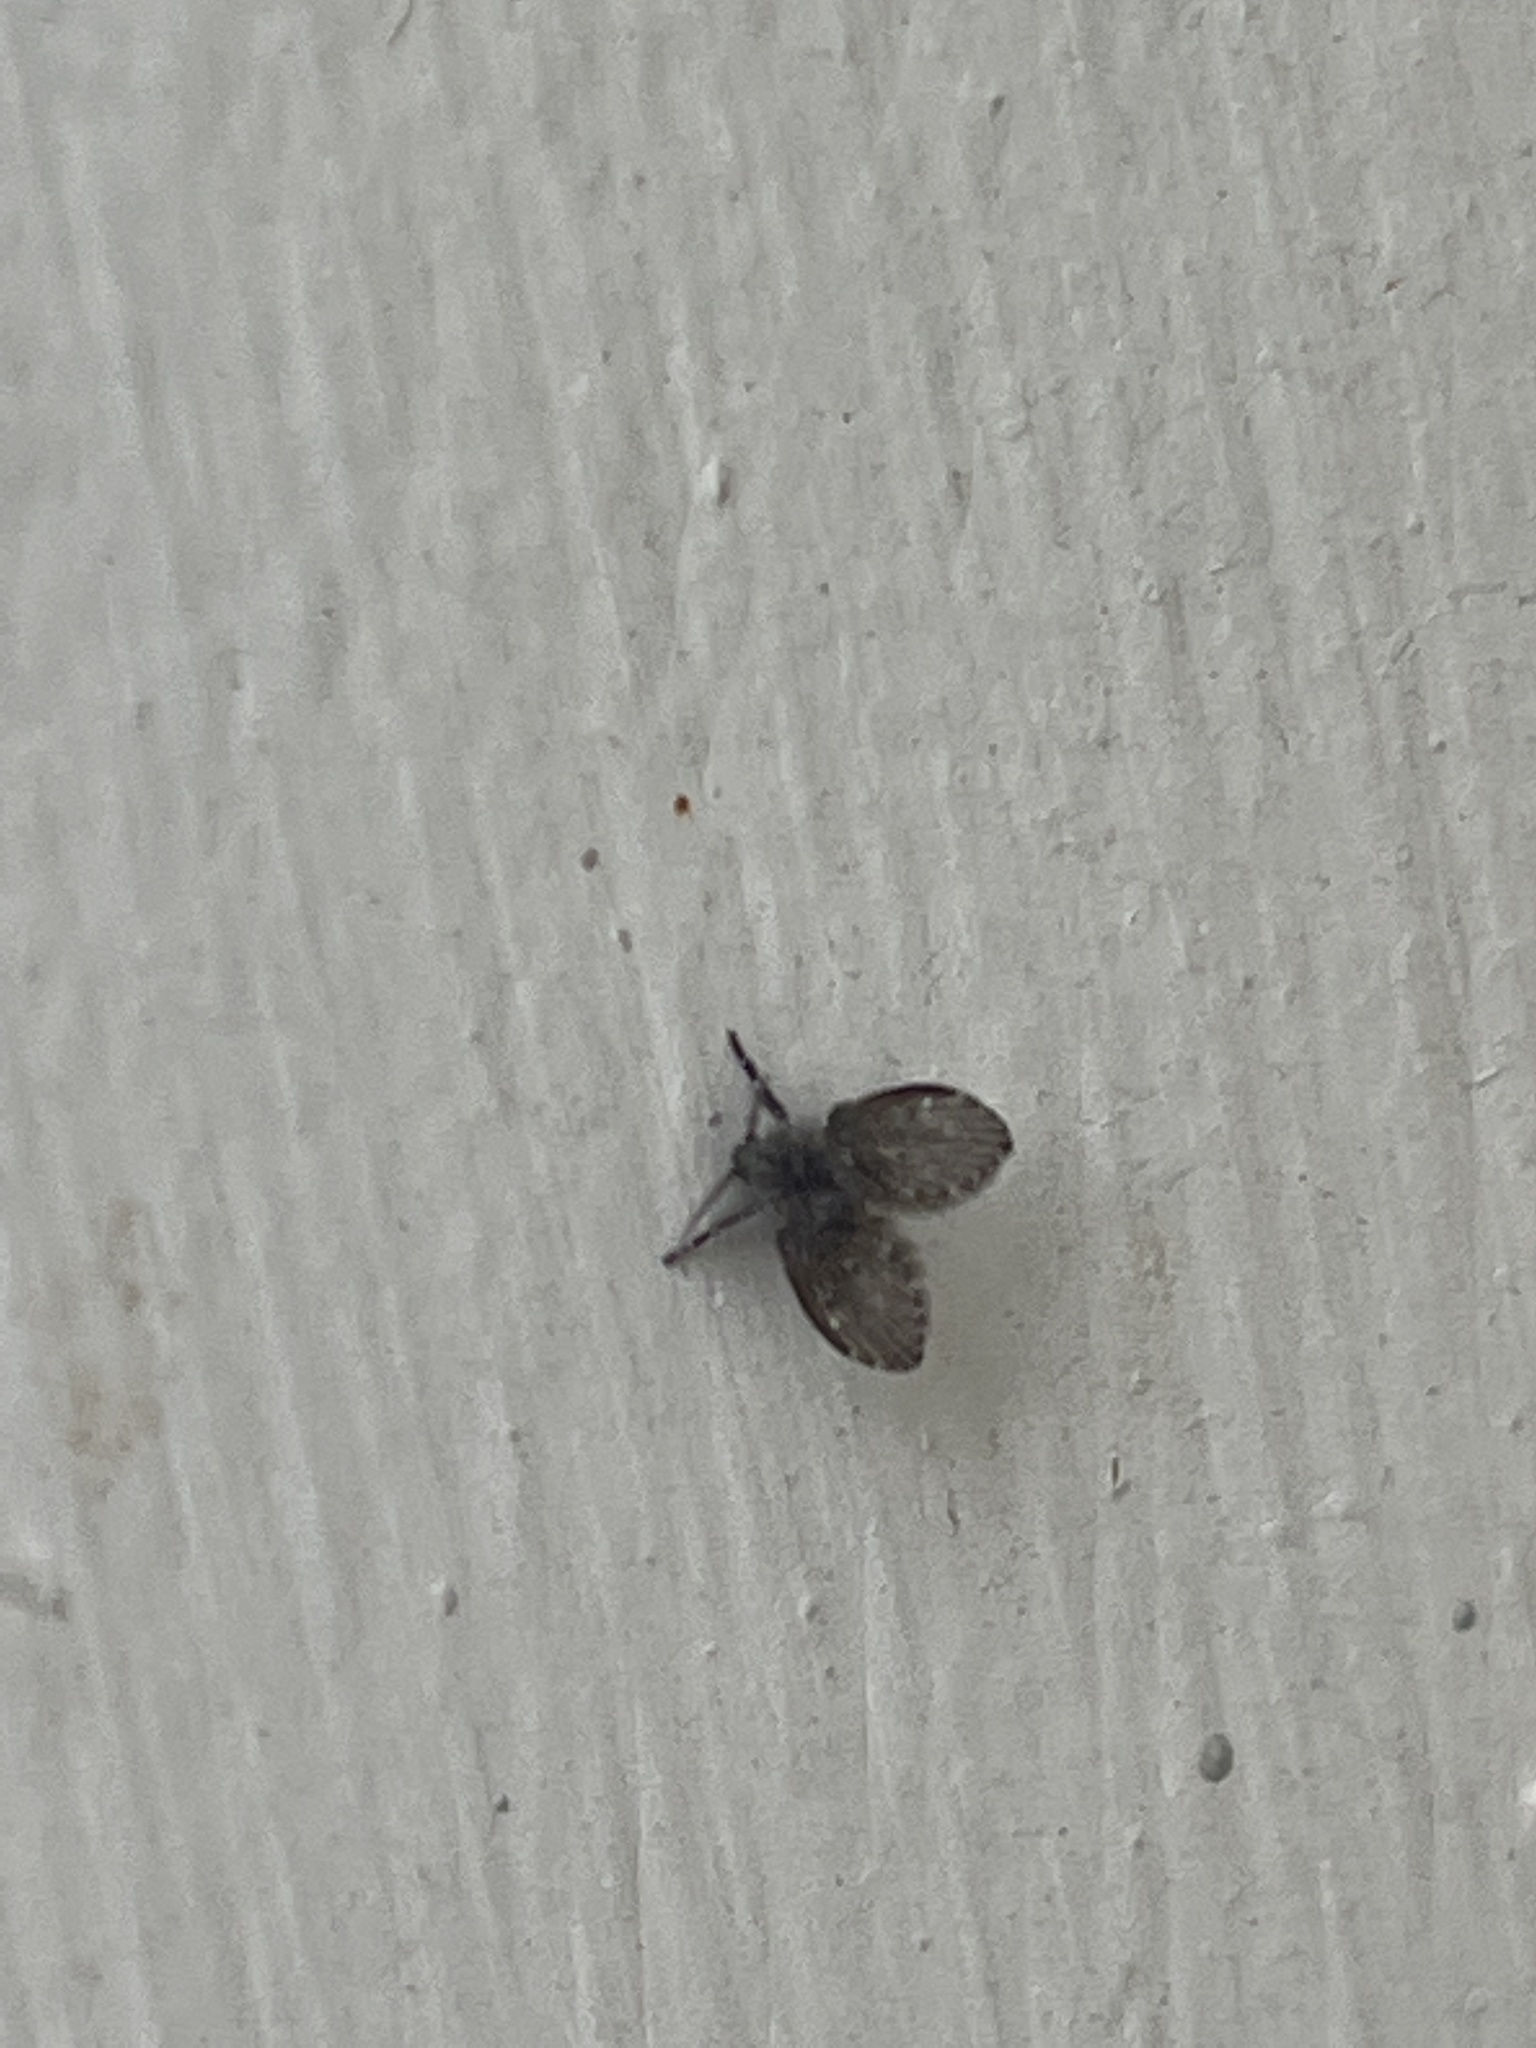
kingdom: Animalia
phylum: Arthropoda
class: Insecta
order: Diptera
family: Psychodidae
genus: Clogmia
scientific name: Clogmia albipunctatus
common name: White-spotted moth fly
